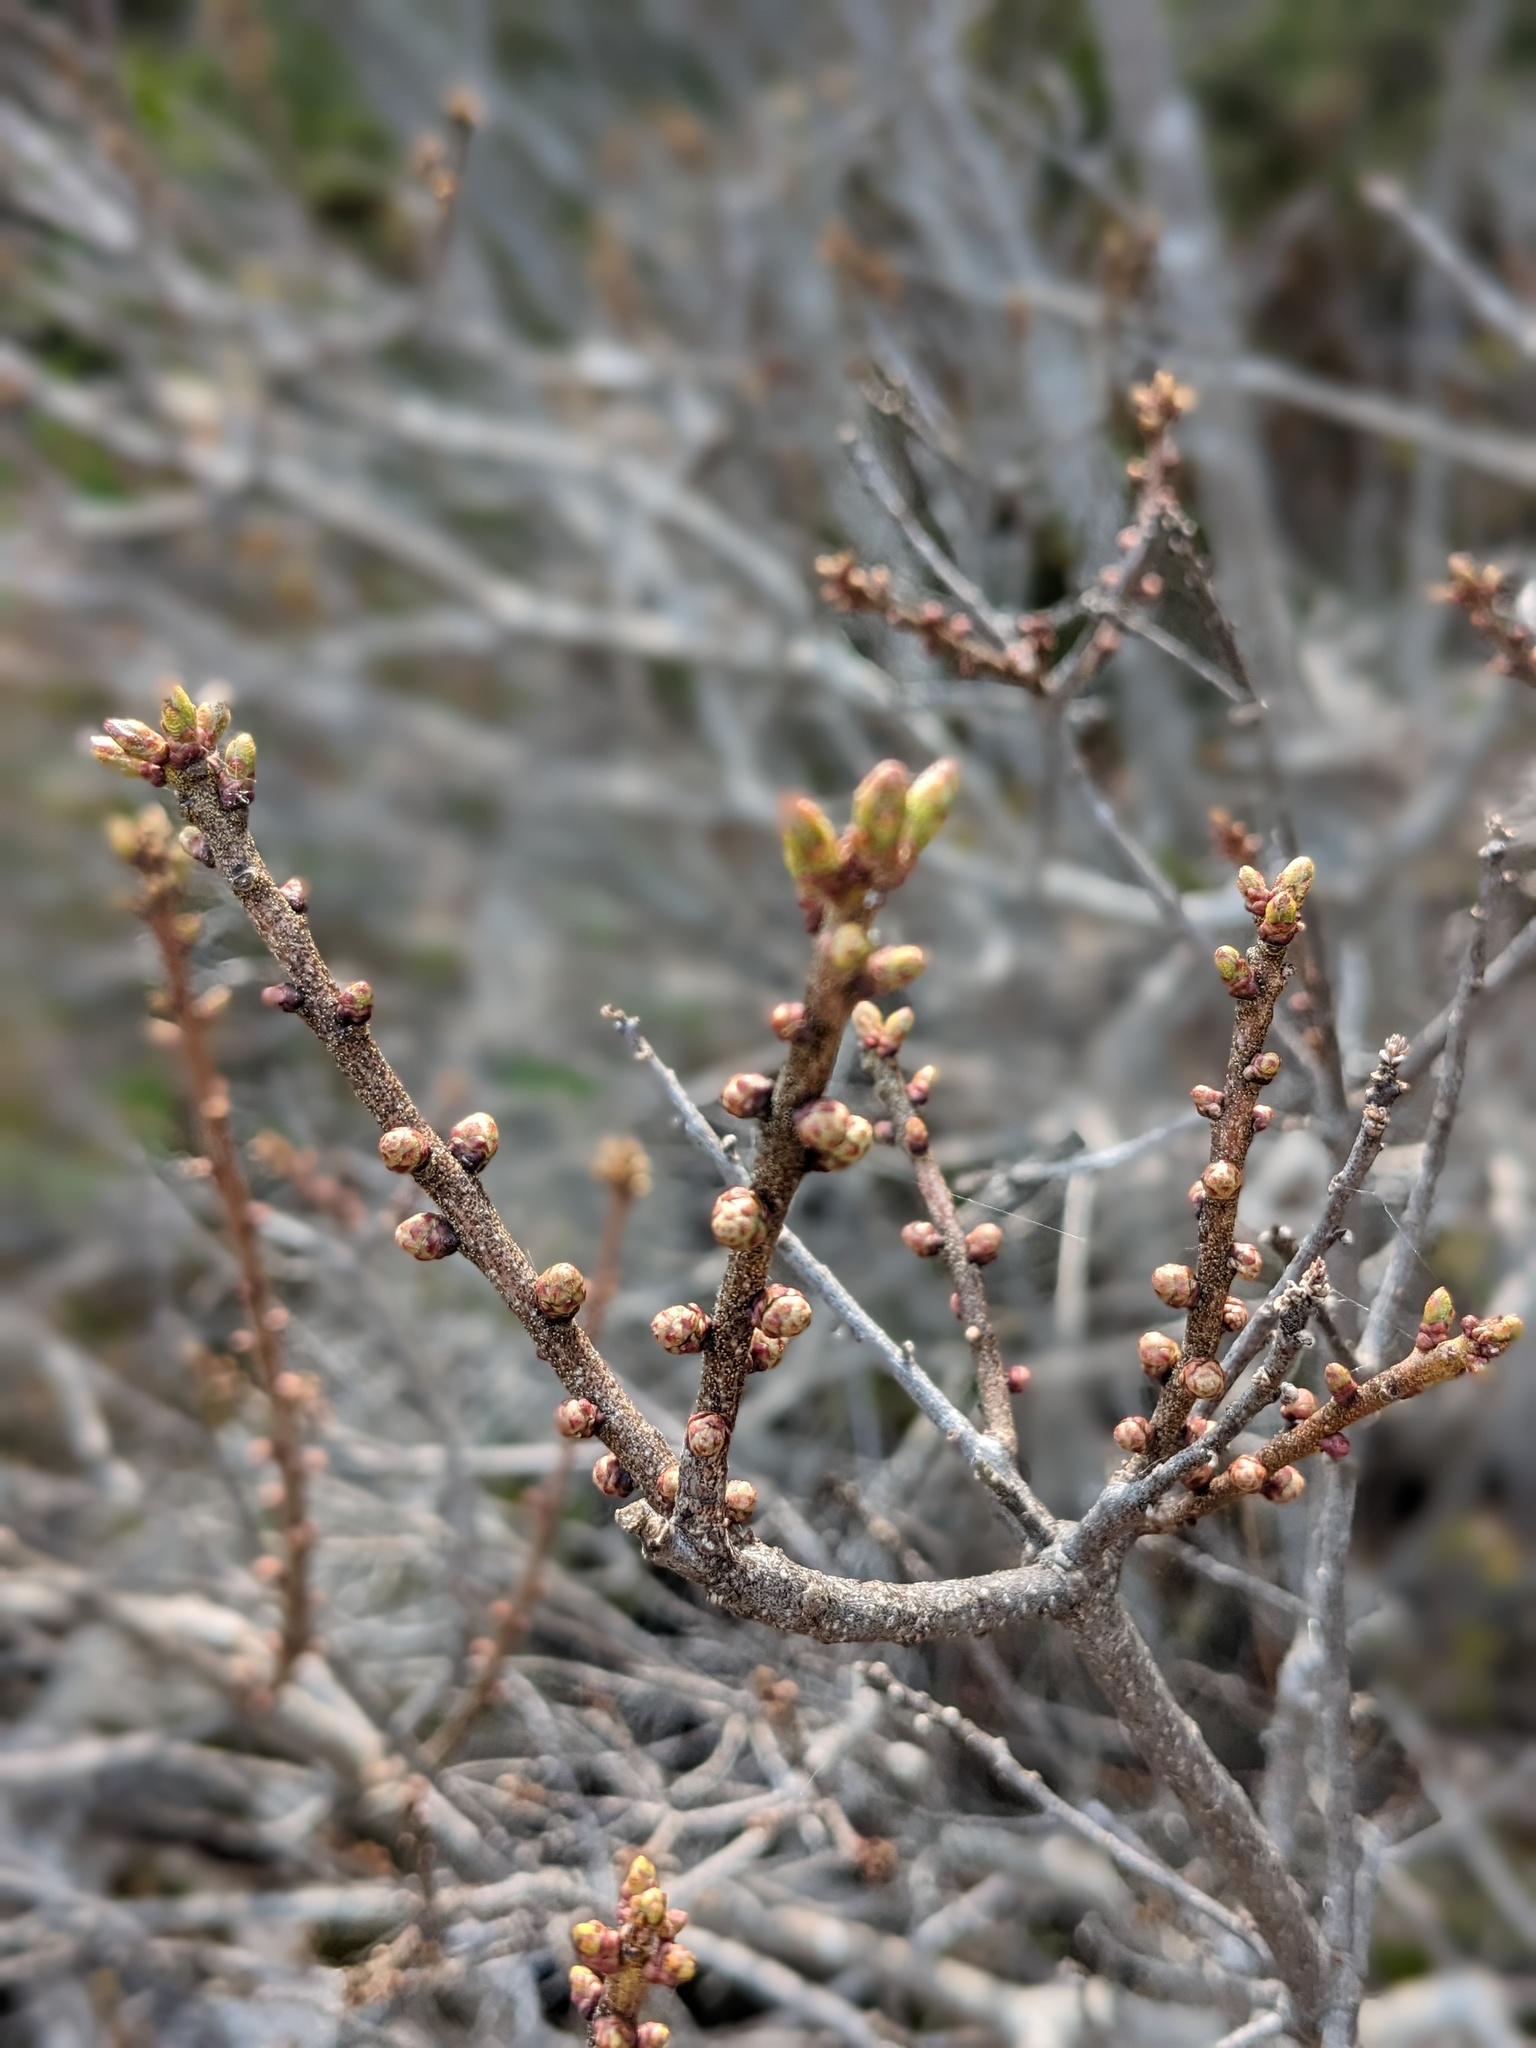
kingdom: Plantae
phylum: Tracheophyta
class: Magnoliopsida
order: Fagales
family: Myricaceae
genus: Morella
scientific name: Morella pensylvanica
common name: Northern bayberry
